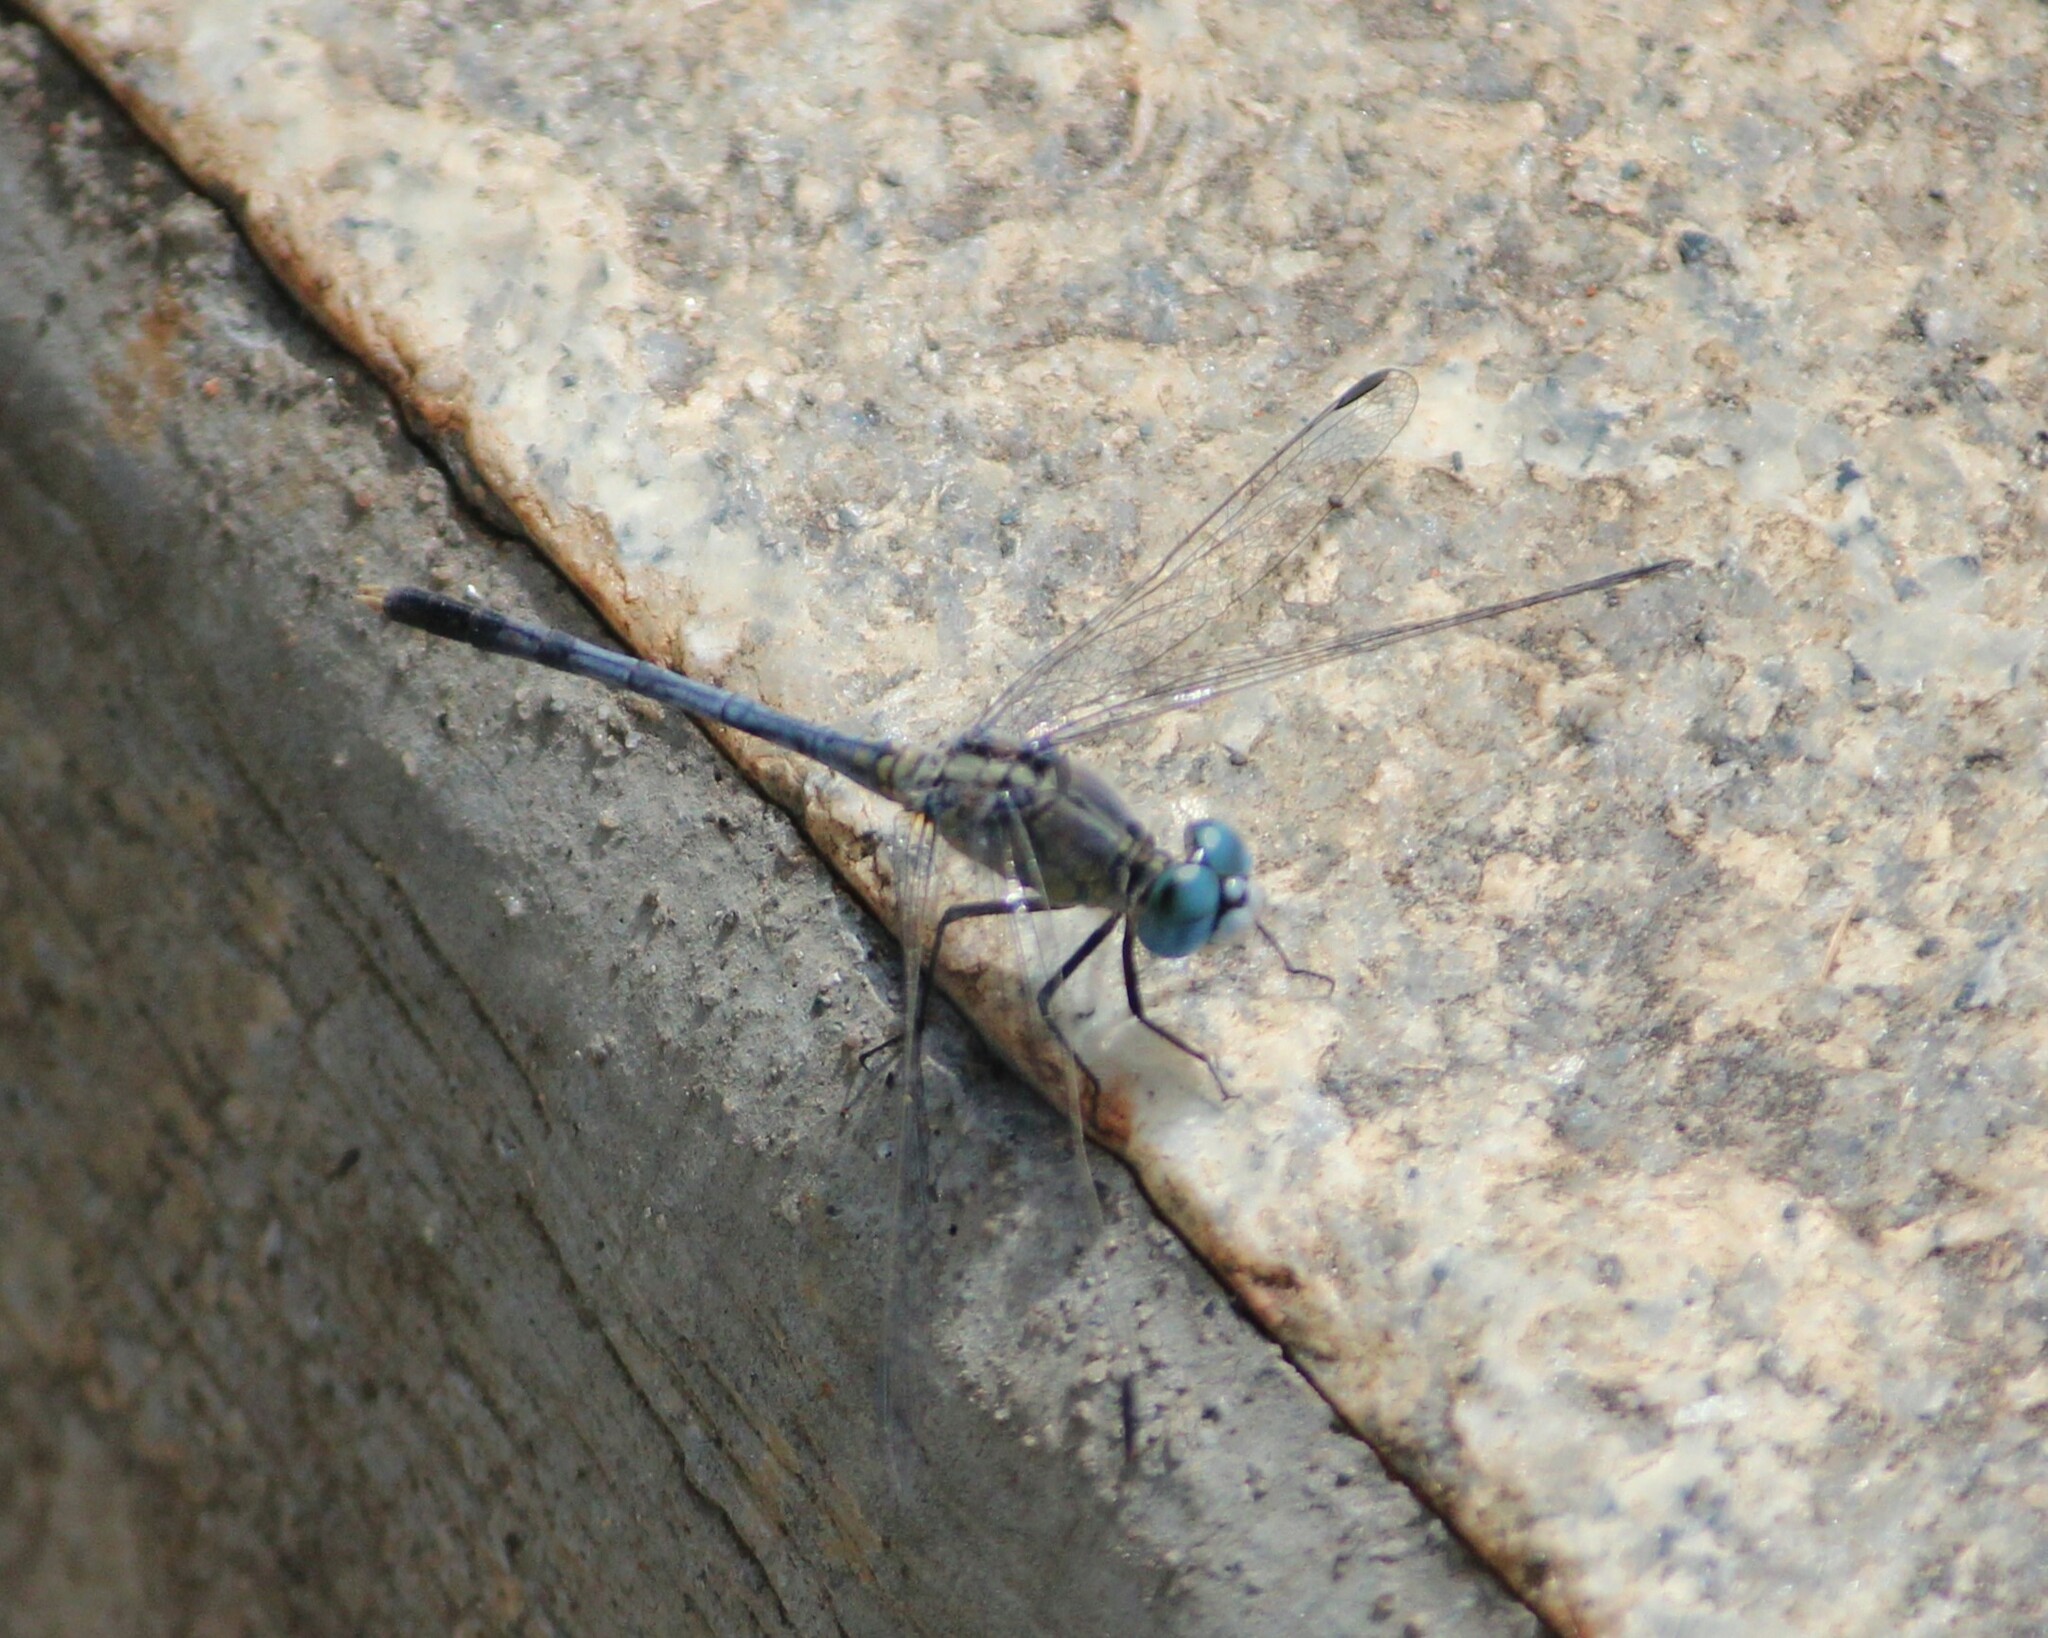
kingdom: Animalia
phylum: Arthropoda
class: Insecta
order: Odonata
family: Libellulidae
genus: Diplacodes
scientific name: Diplacodes trivialis
